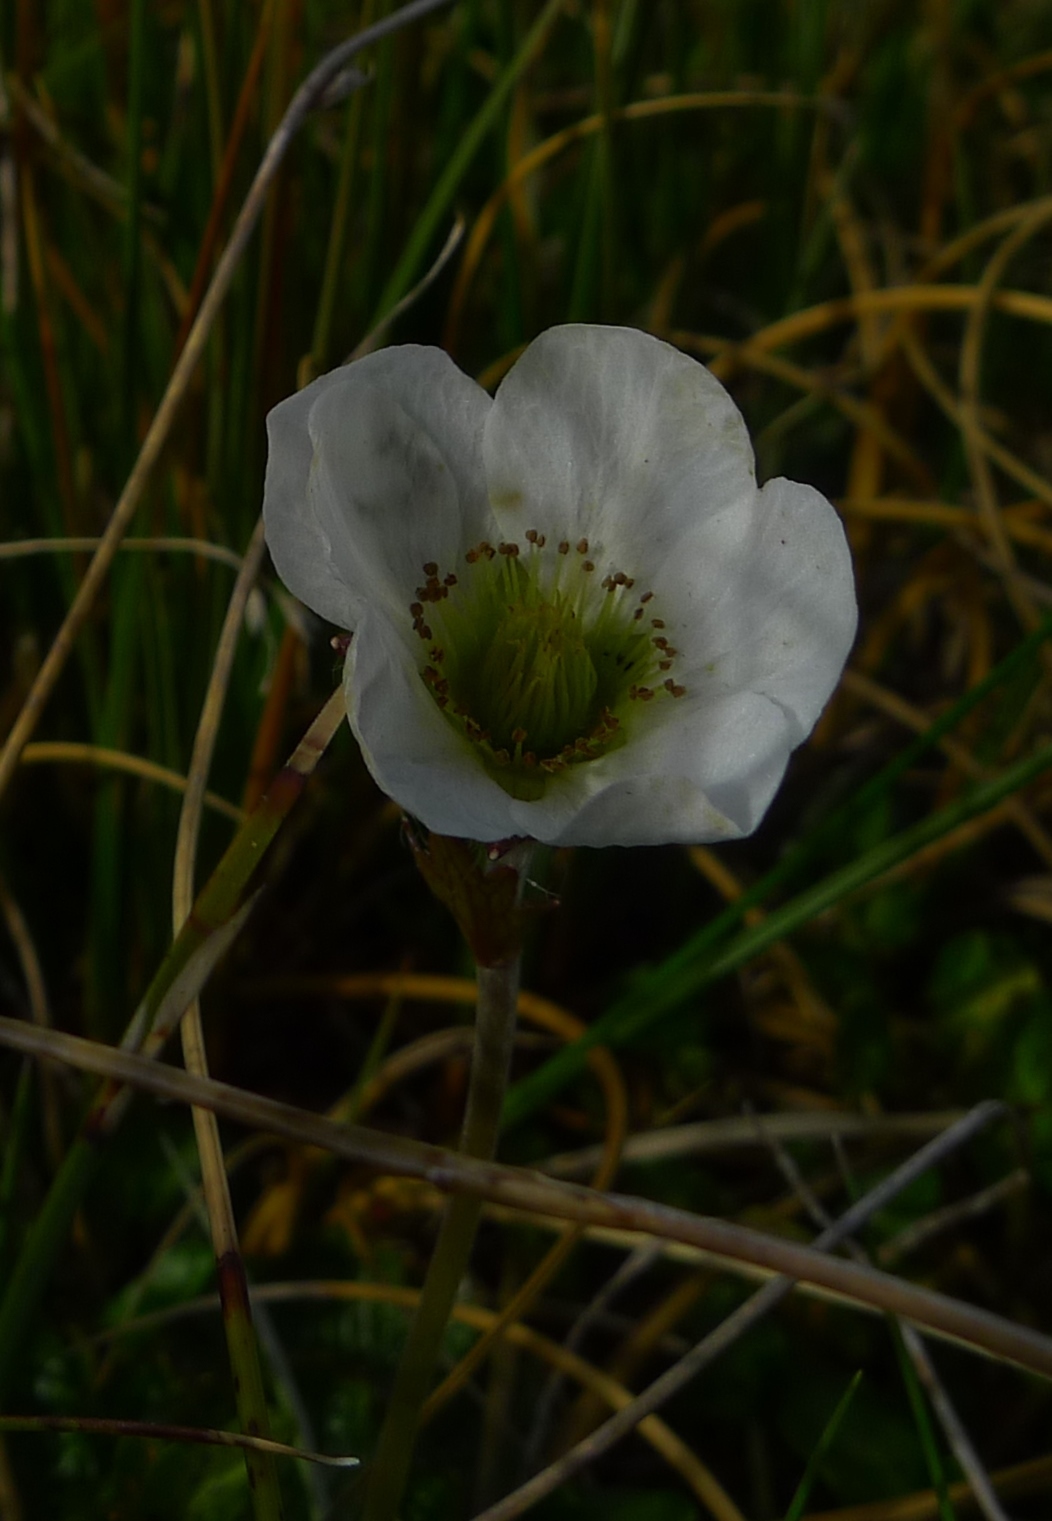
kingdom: Plantae
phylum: Tracheophyta
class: Magnoliopsida
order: Rosales
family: Rosaceae
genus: Geum
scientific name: Geum uniflorum
